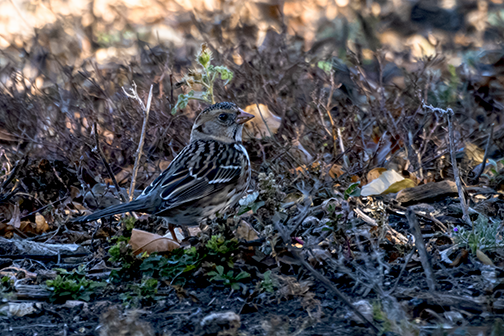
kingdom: Animalia
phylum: Chordata
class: Aves
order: Passeriformes
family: Passerellidae
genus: Zonotrichia
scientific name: Zonotrichia querula
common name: Harris's sparrow
